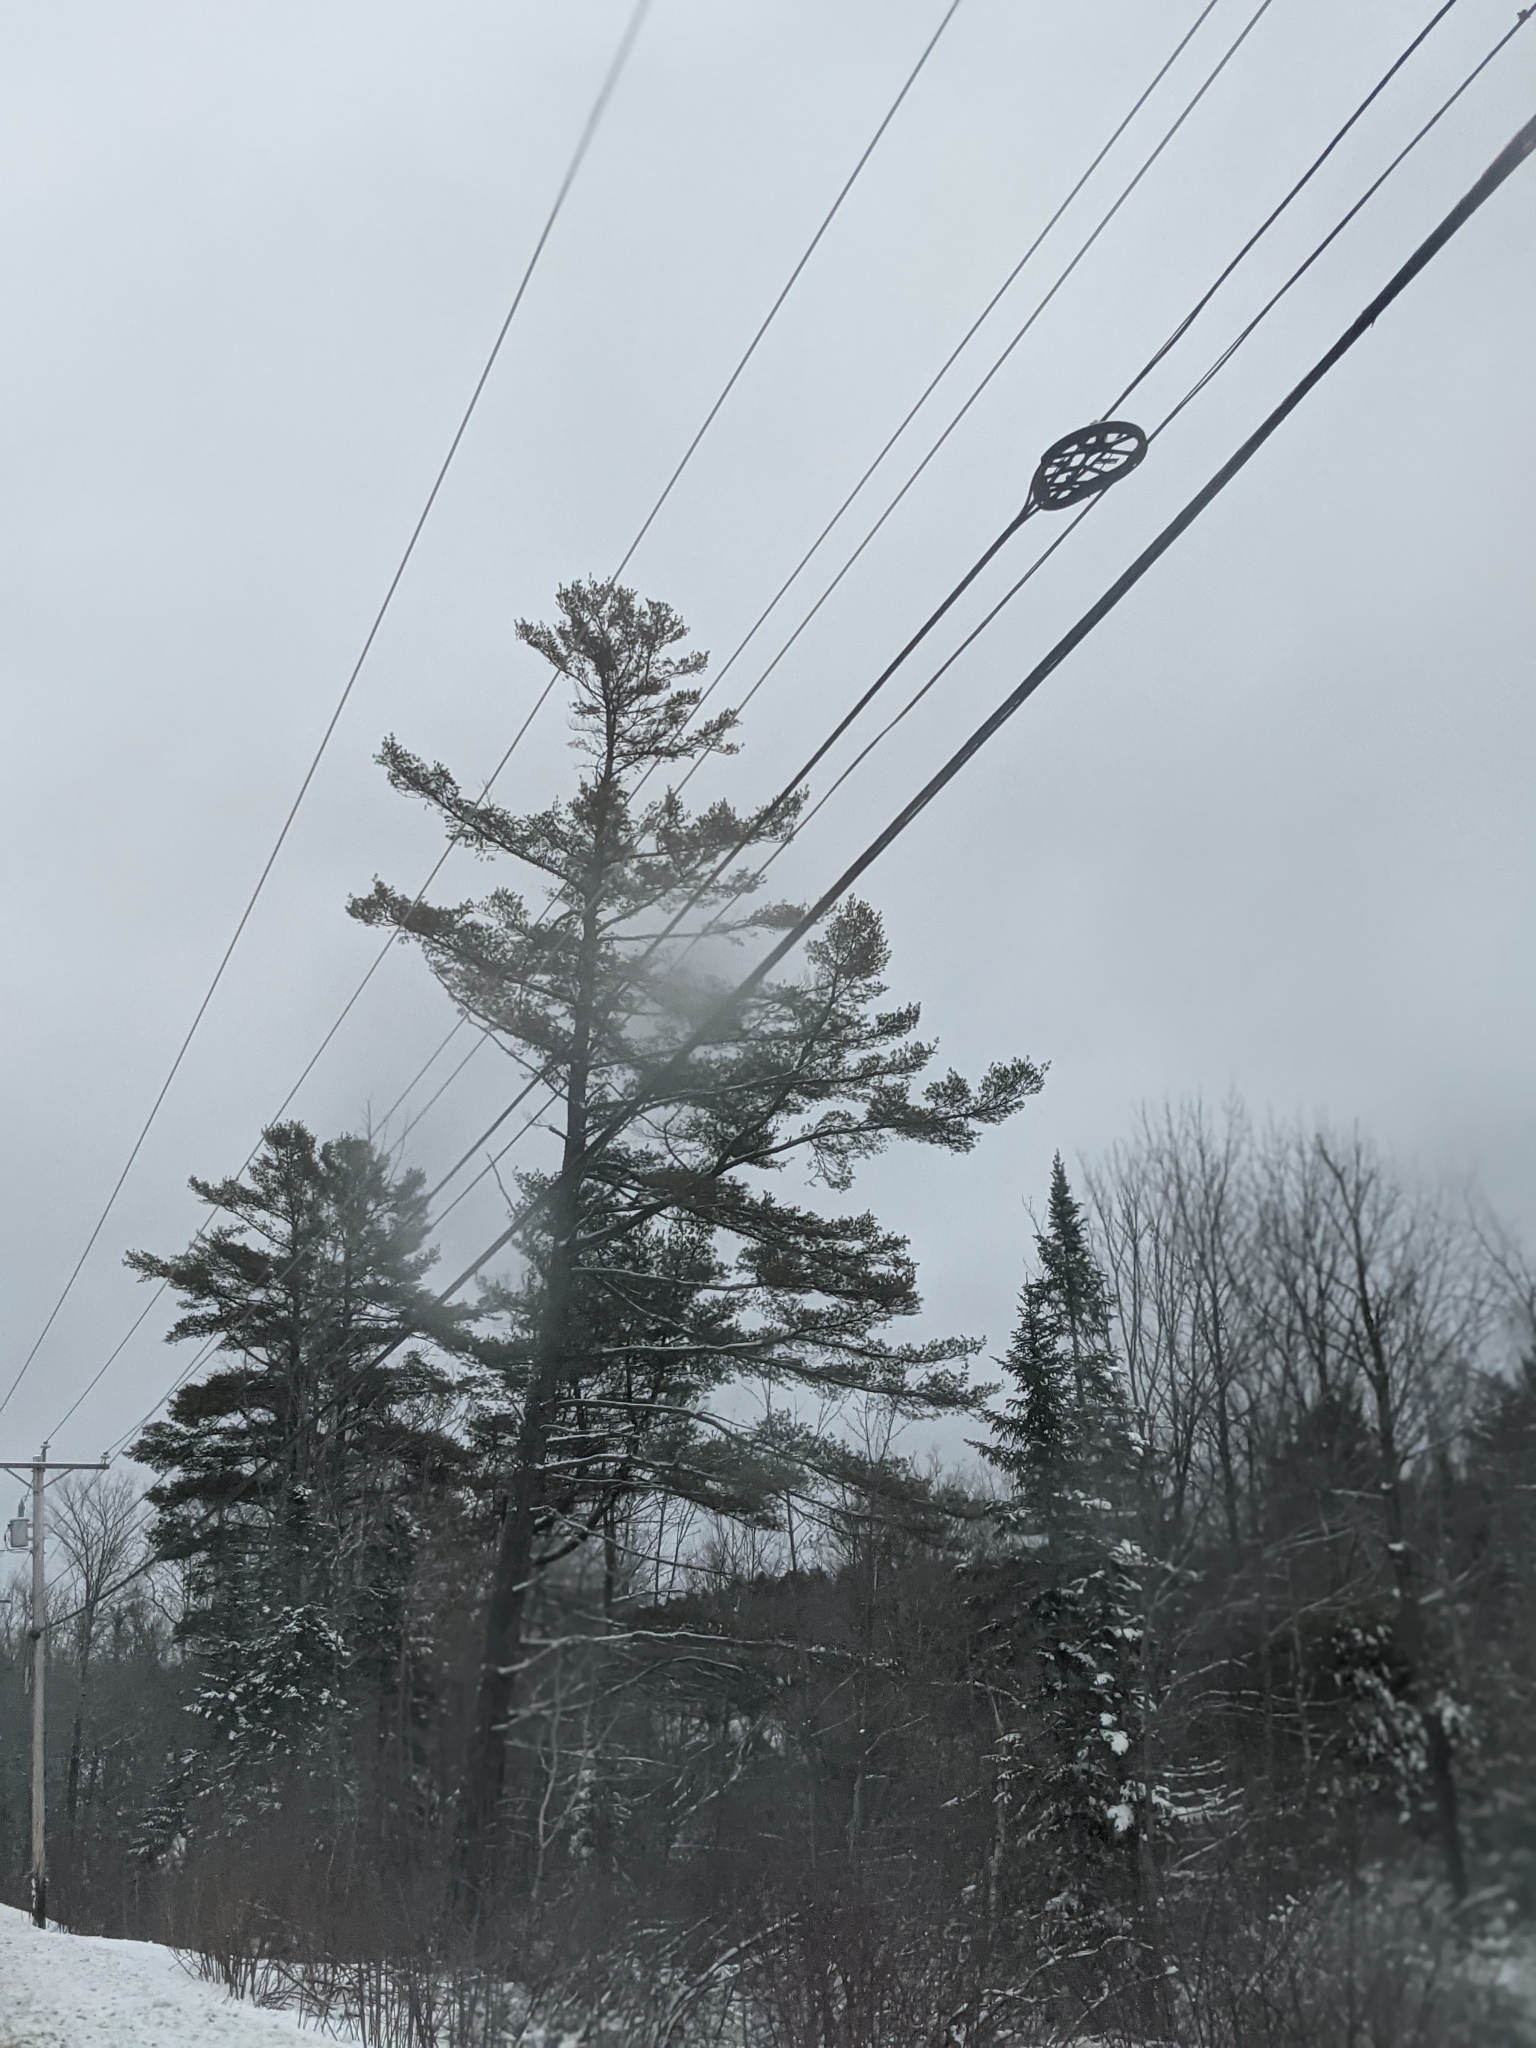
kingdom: Plantae
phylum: Tracheophyta
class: Pinopsida
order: Pinales
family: Pinaceae
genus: Pinus
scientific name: Pinus strobus
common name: Weymouth pine
